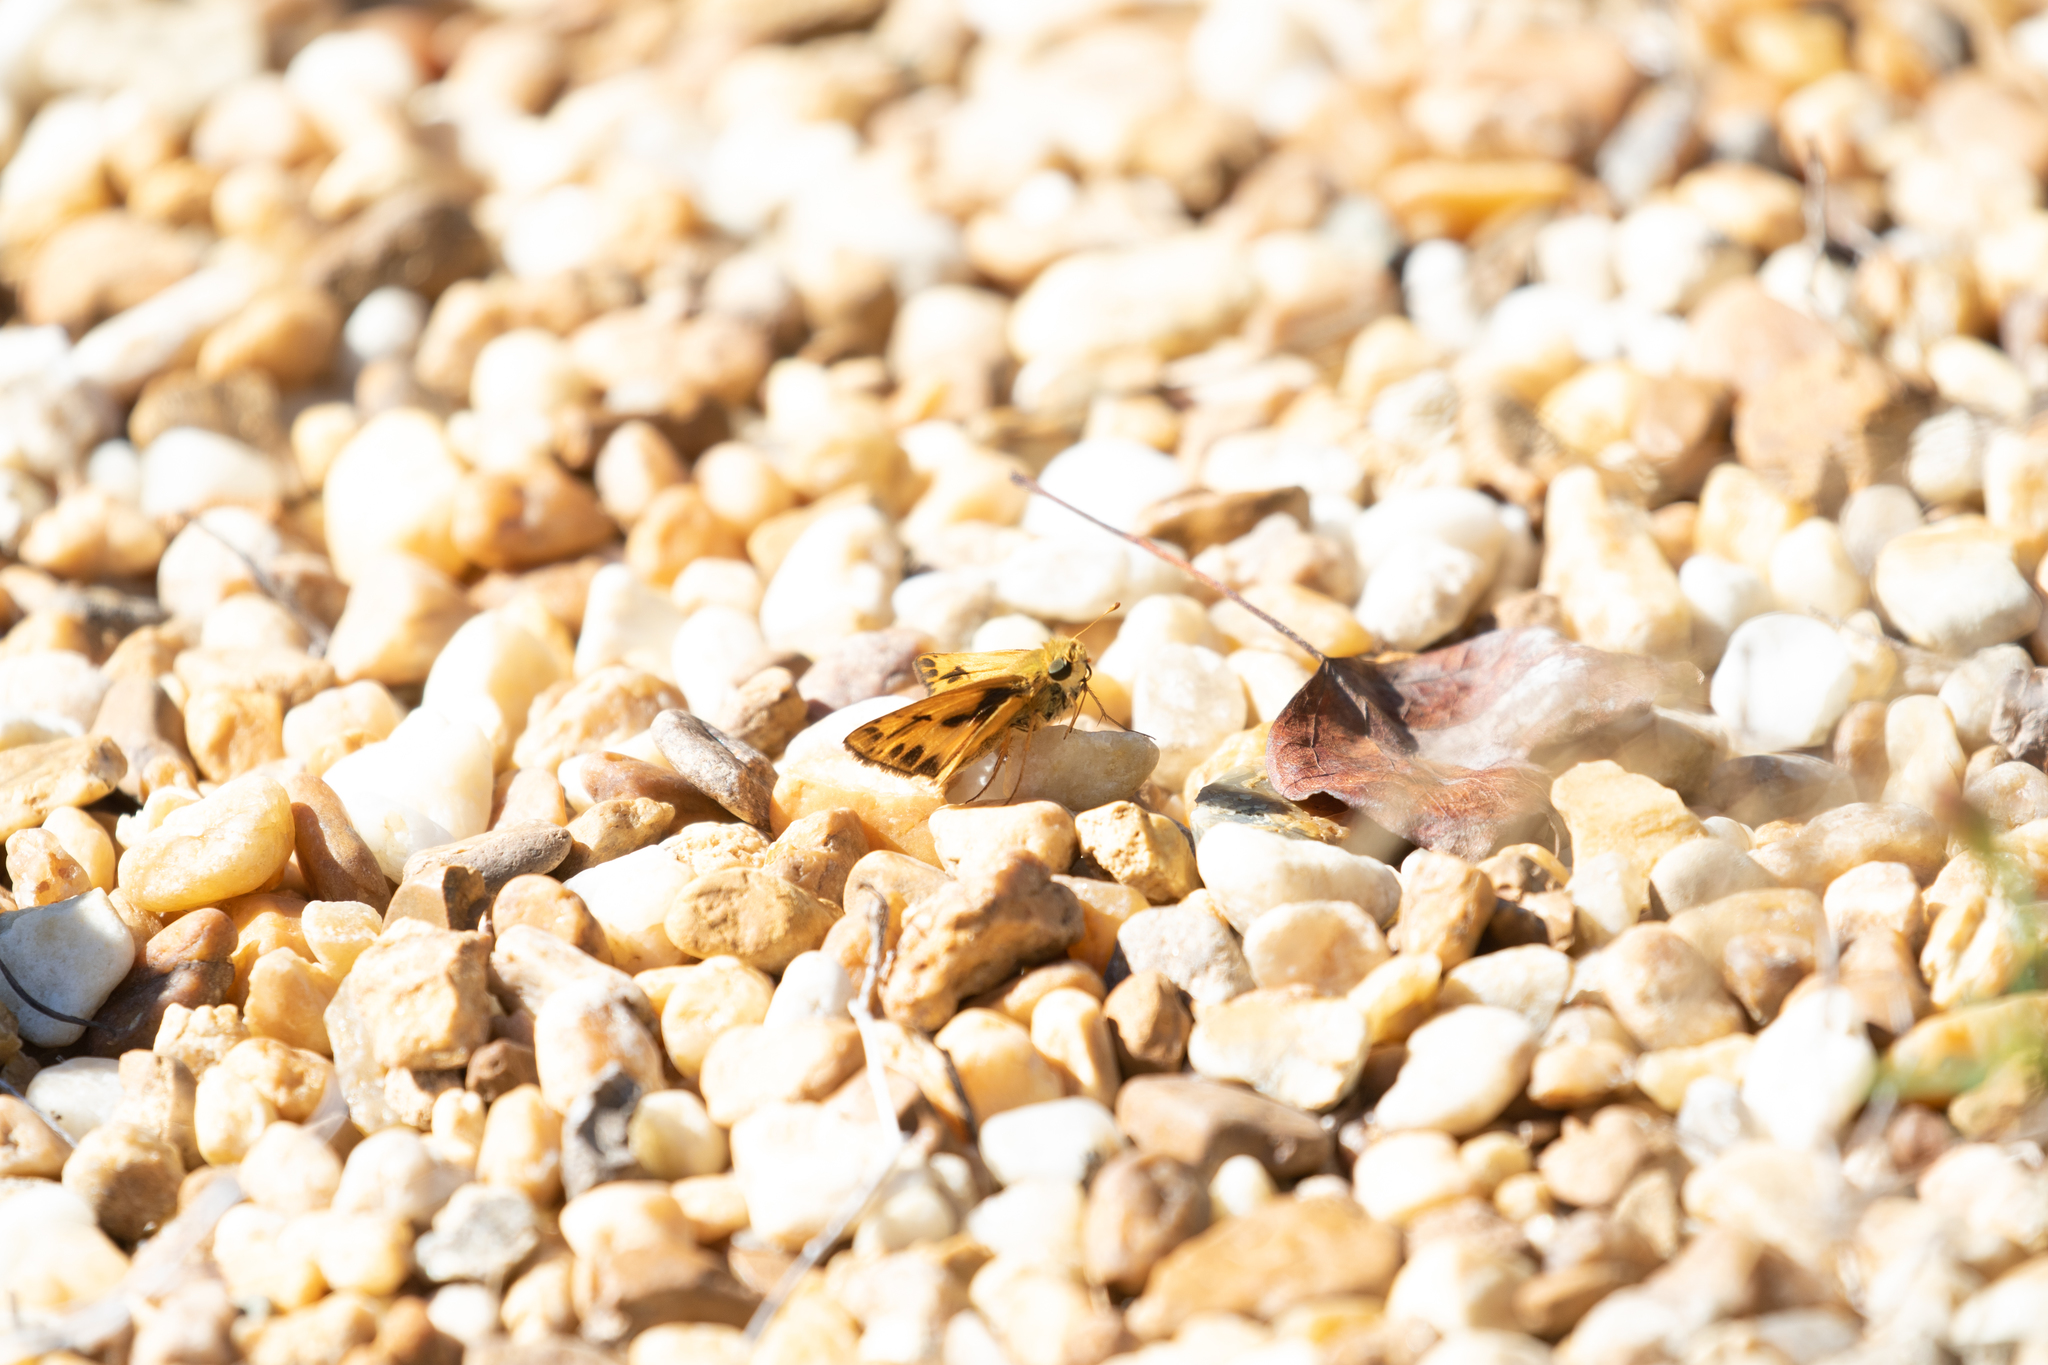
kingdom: Animalia
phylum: Arthropoda
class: Insecta
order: Lepidoptera
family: Hesperiidae
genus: Hylephila
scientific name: Hylephila phyleus
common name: Fiery skipper
